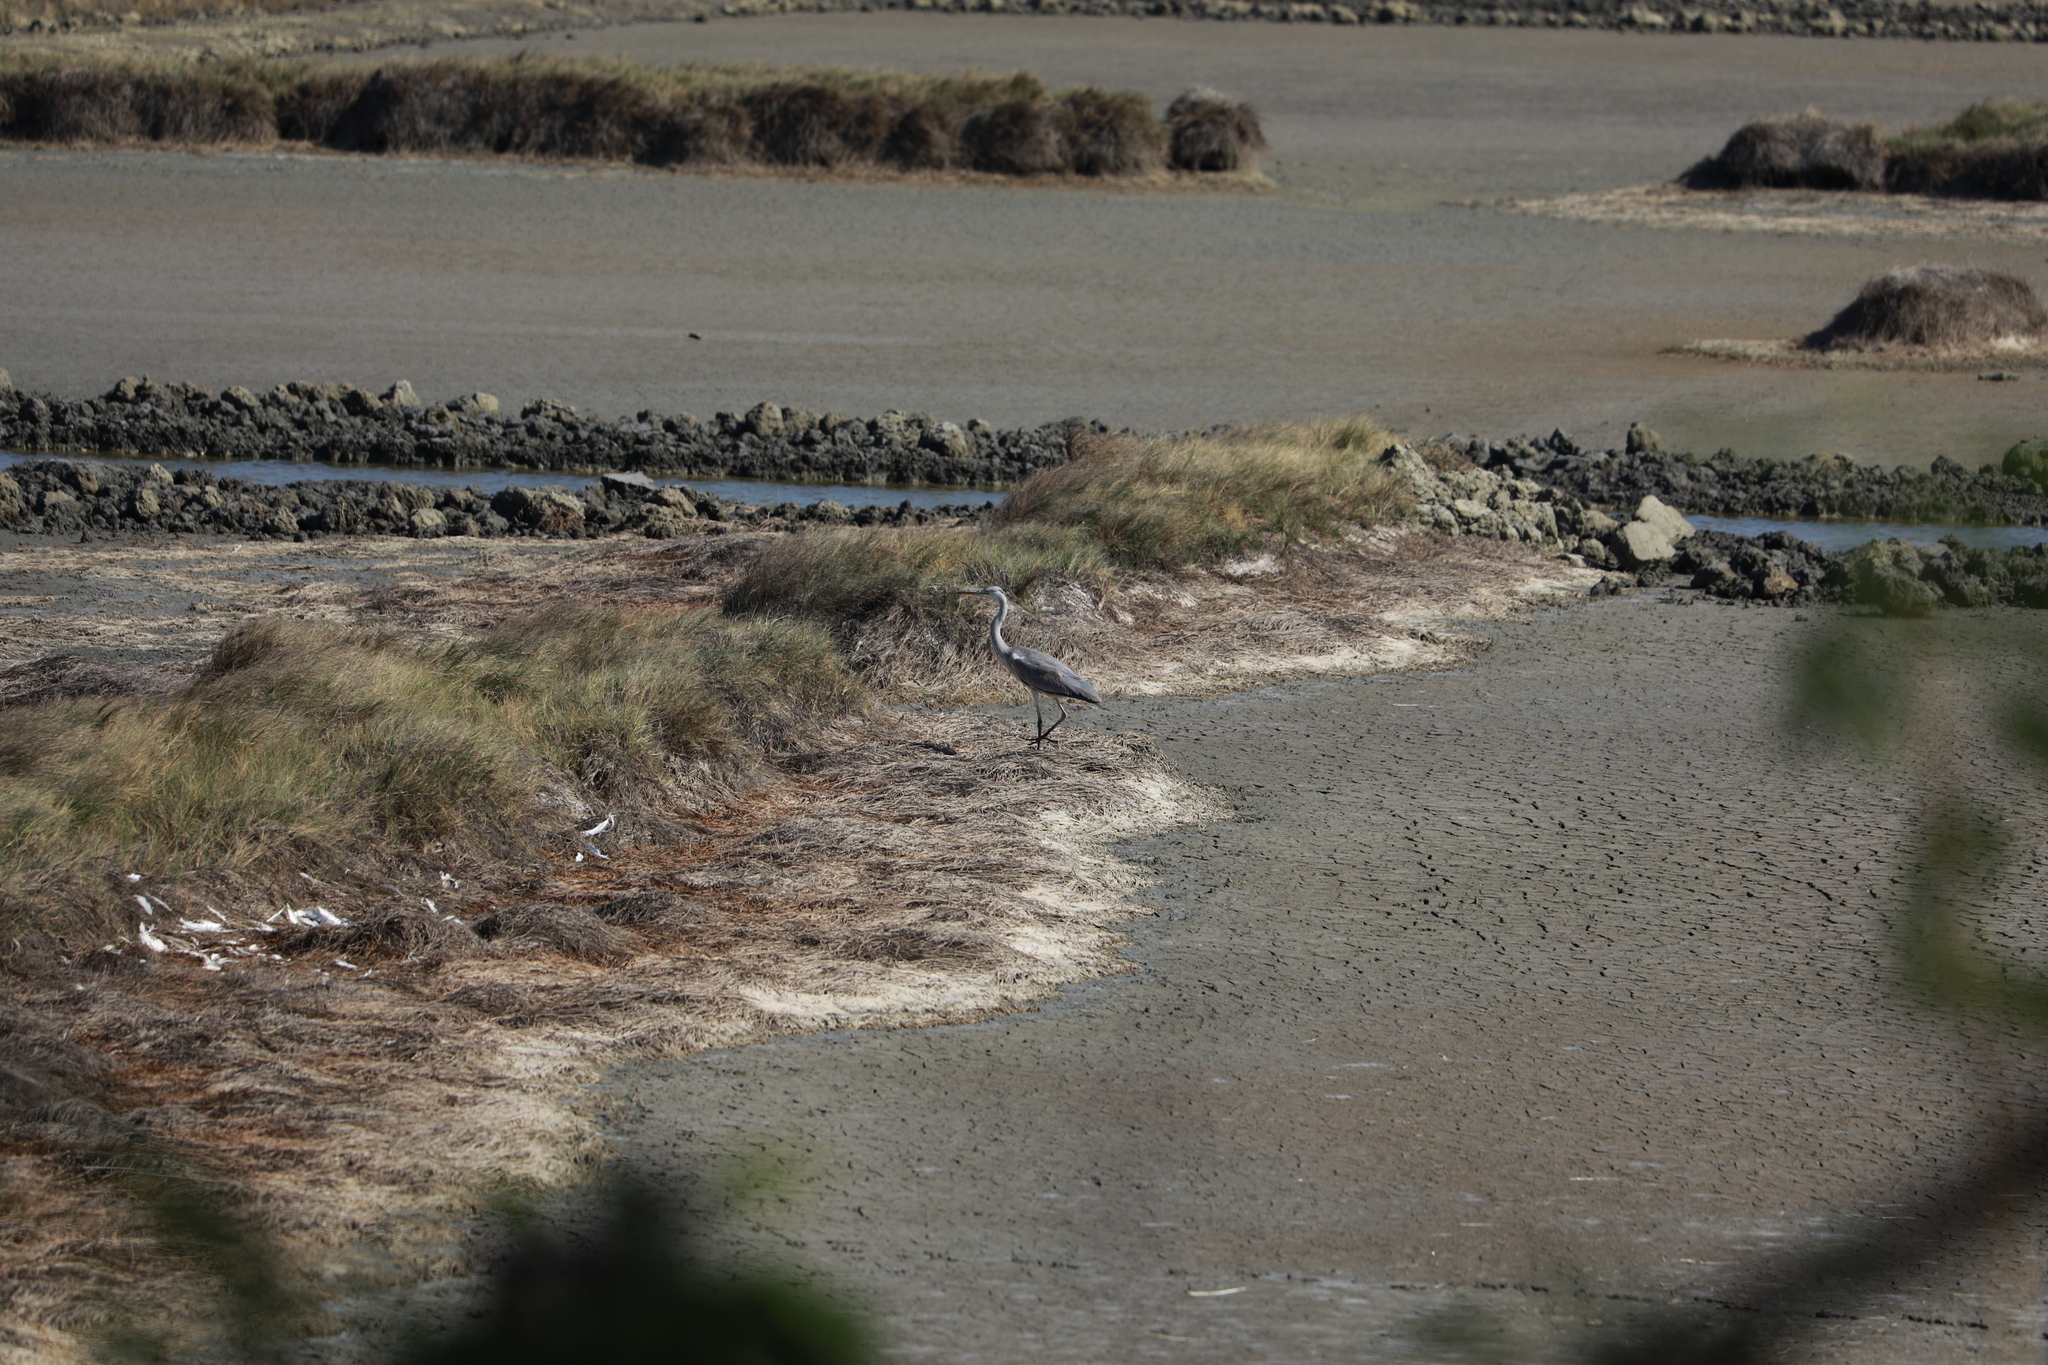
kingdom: Animalia
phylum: Chordata
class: Aves
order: Pelecaniformes
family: Ardeidae
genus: Ardea
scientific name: Ardea cinerea
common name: Grey heron
